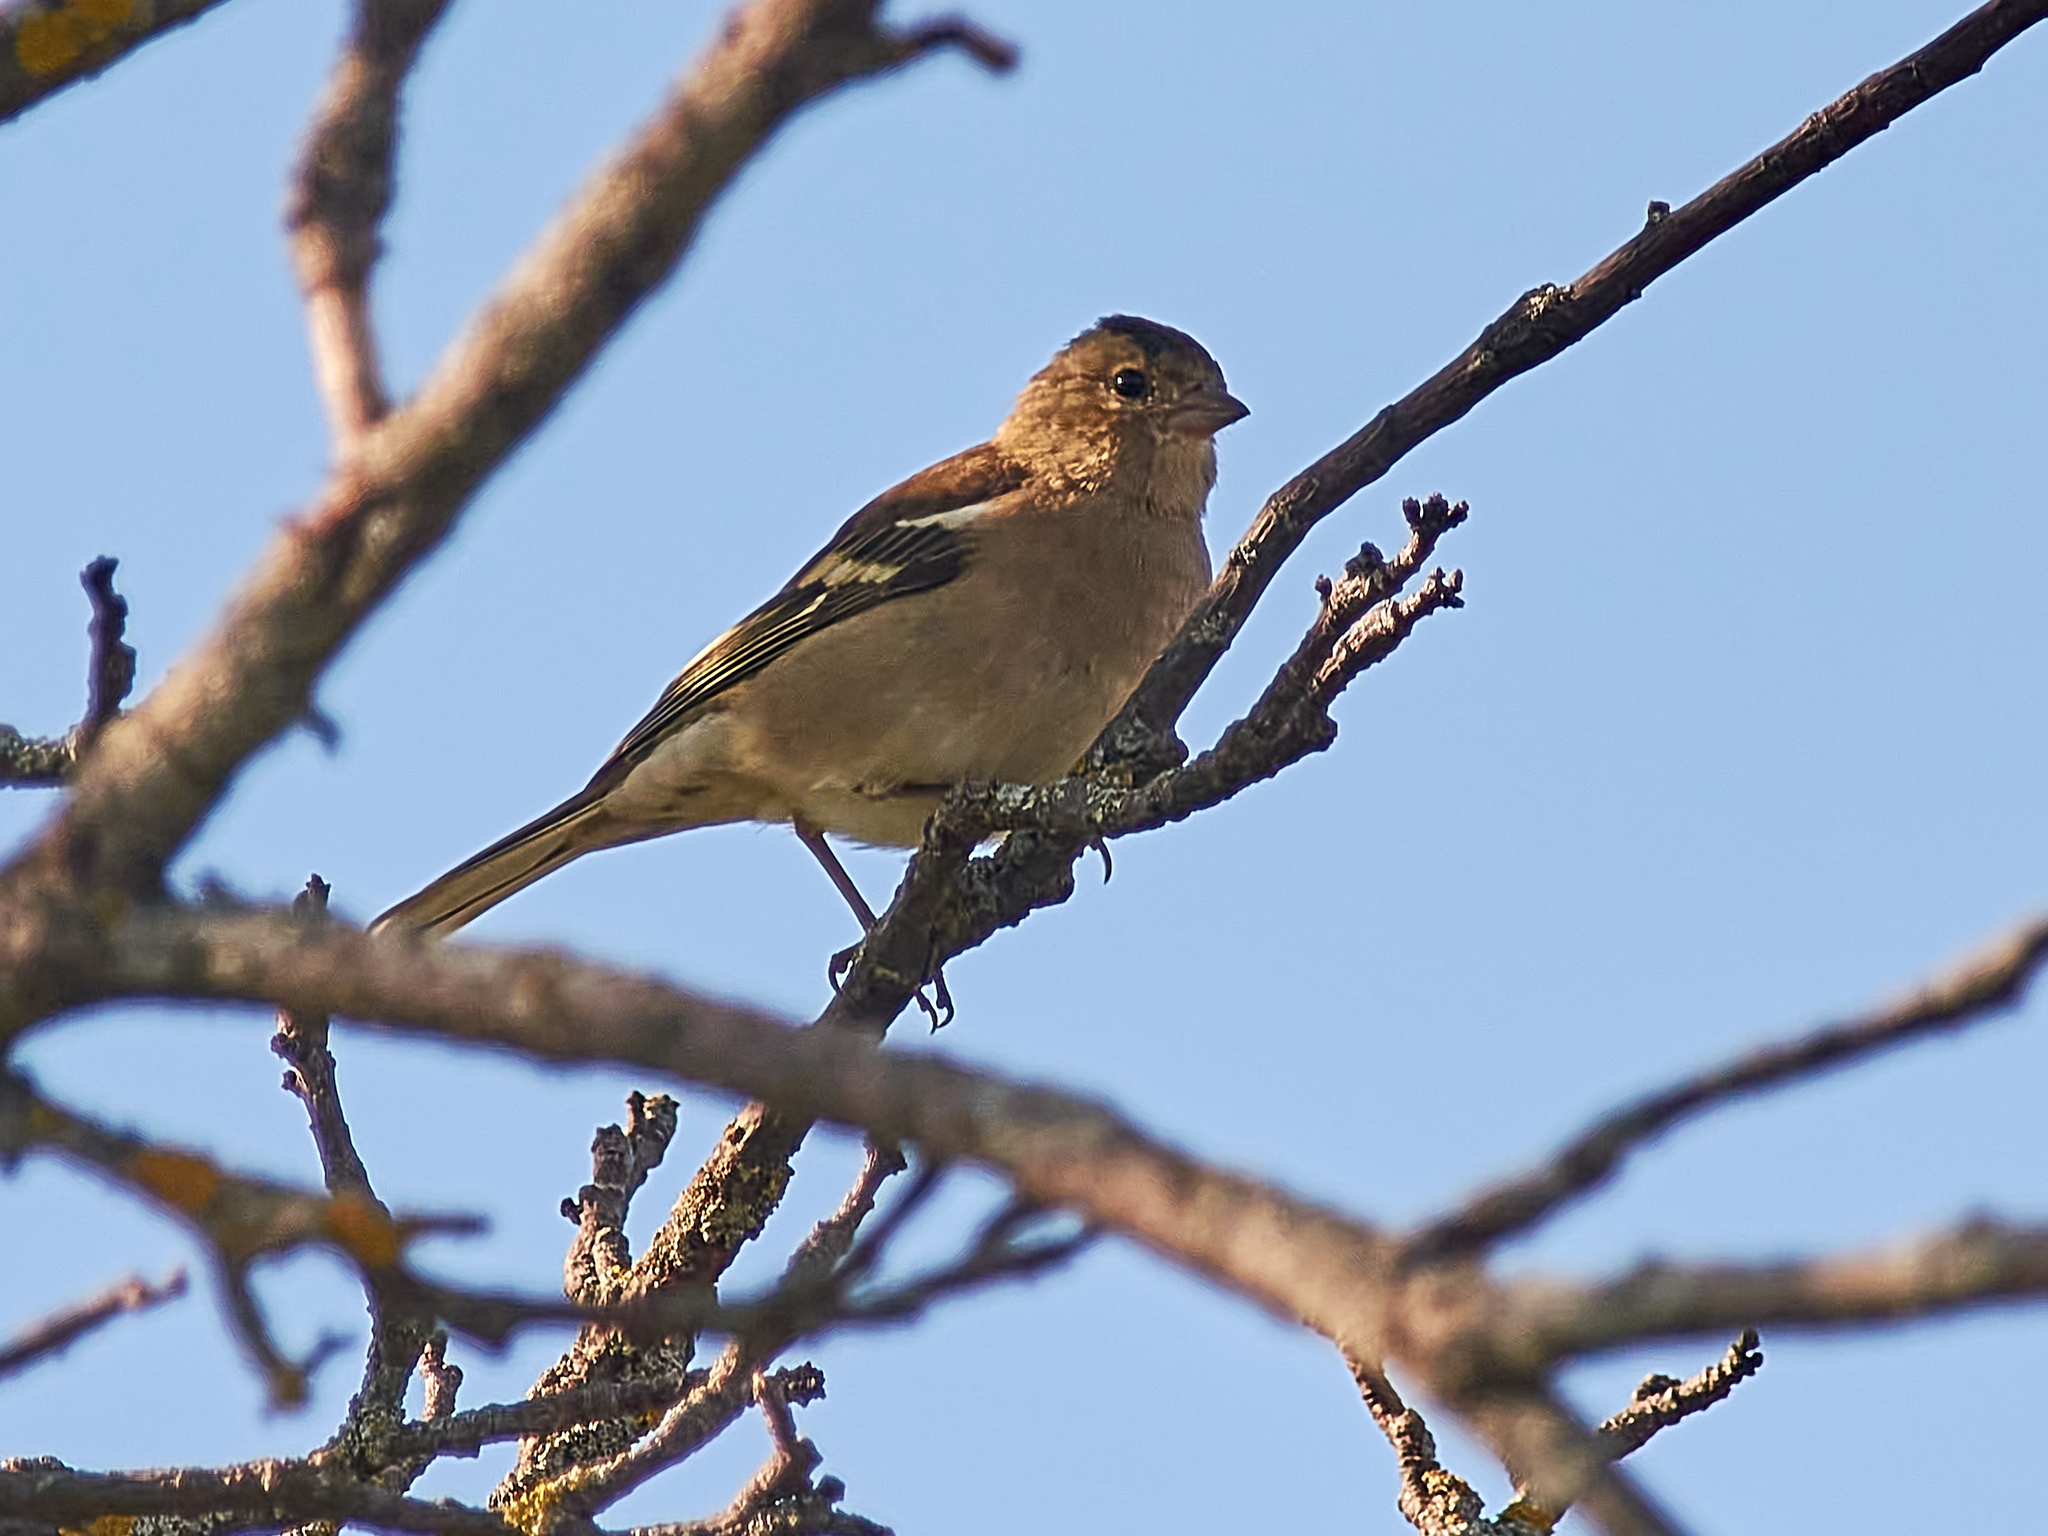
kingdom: Animalia
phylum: Chordata
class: Aves
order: Passeriformes
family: Fringillidae
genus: Fringilla
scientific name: Fringilla coelebs
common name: Common chaffinch
